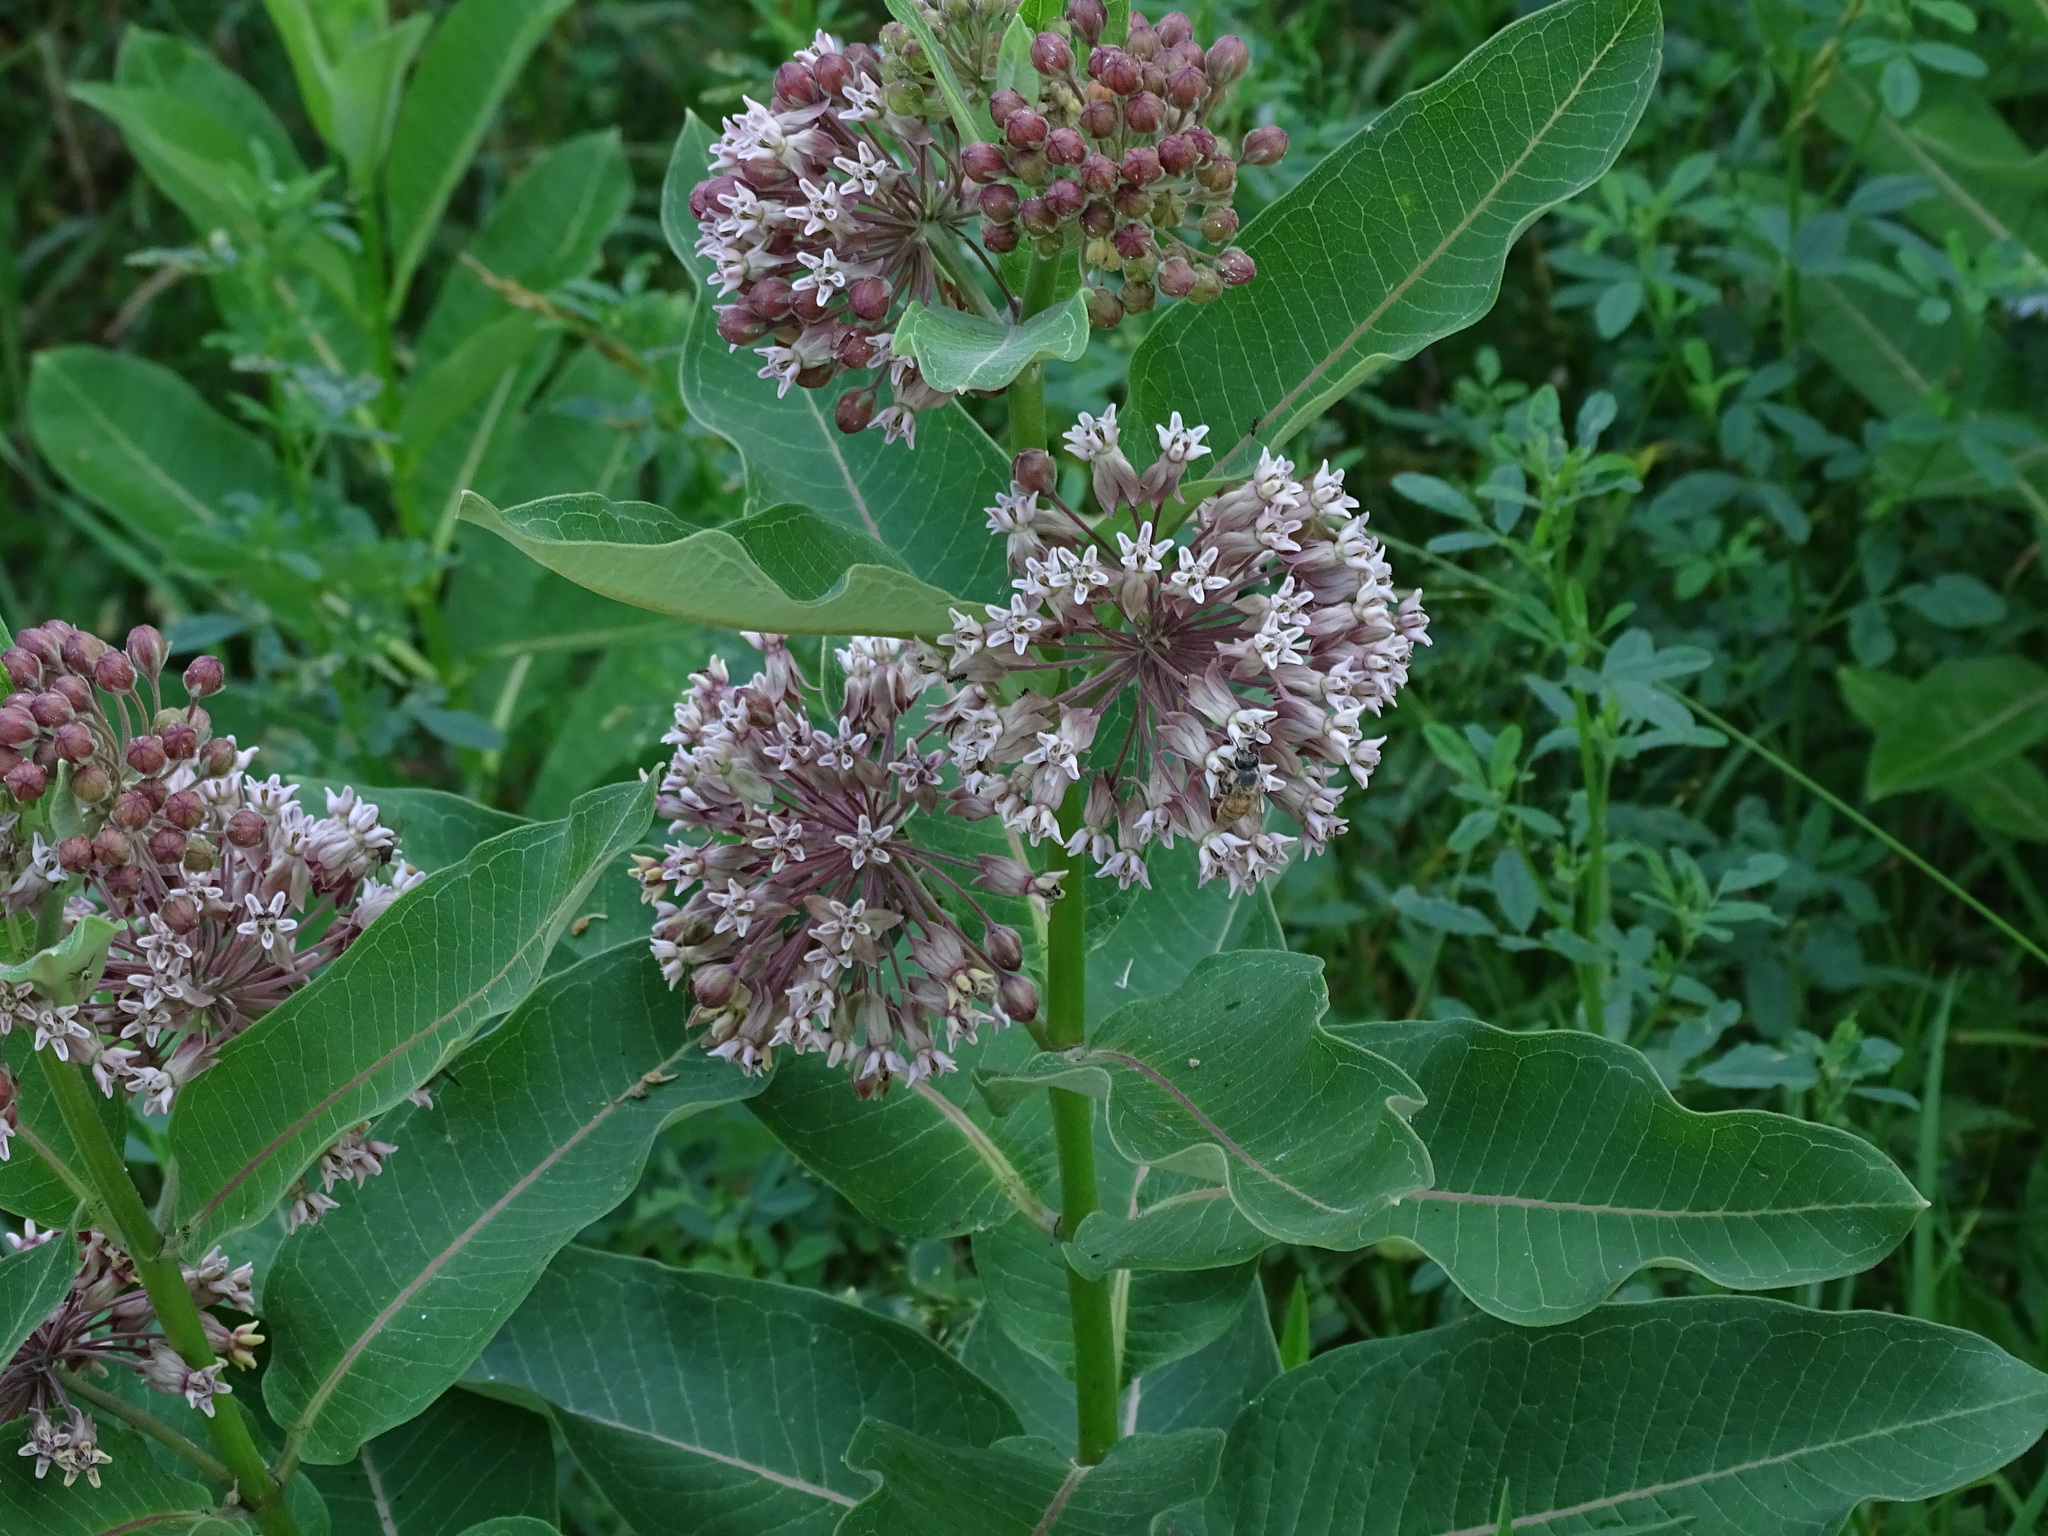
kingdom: Plantae
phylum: Tracheophyta
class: Magnoliopsida
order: Gentianales
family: Apocynaceae
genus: Asclepias
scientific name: Asclepias syriaca
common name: Common milkweed
